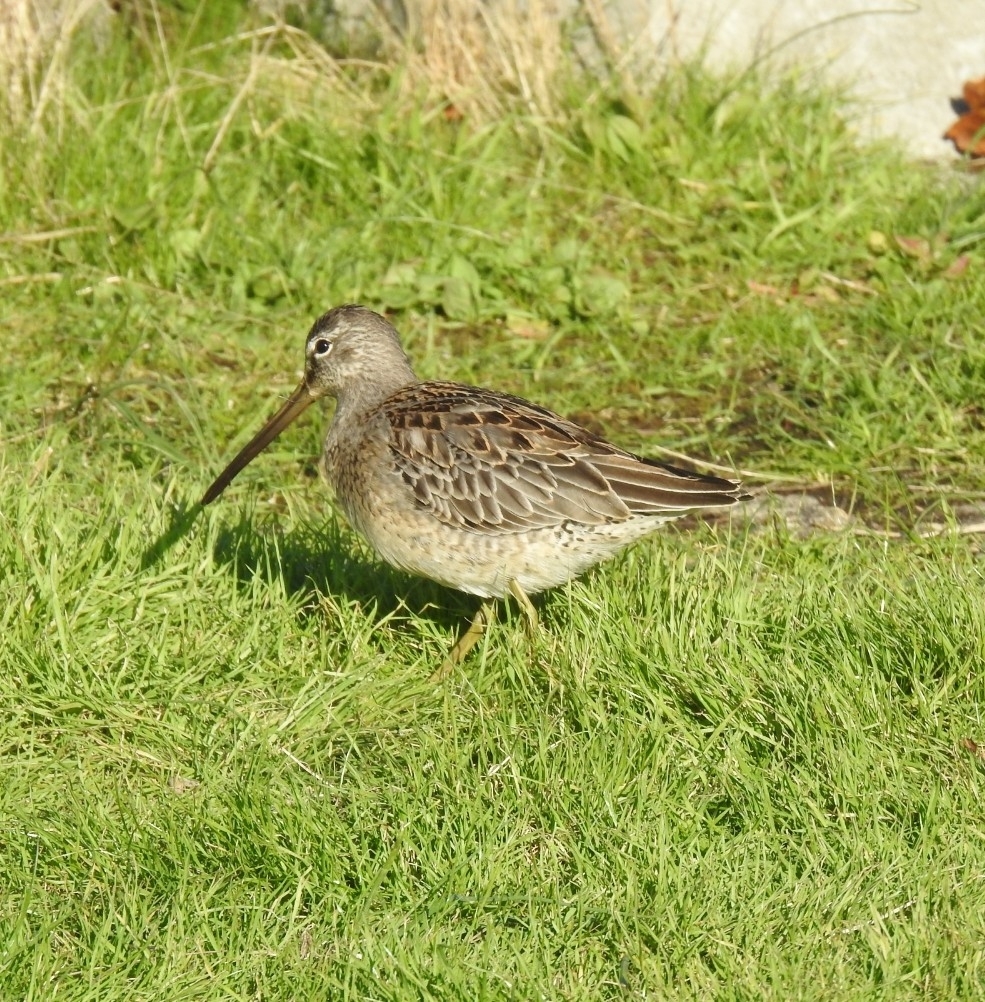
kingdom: Animalia
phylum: Chordata
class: Aves
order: Charadriiformes
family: Scolopacidae
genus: Limnodromus
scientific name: Limnodromus scolopaceus
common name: Long-billed dowitcher
